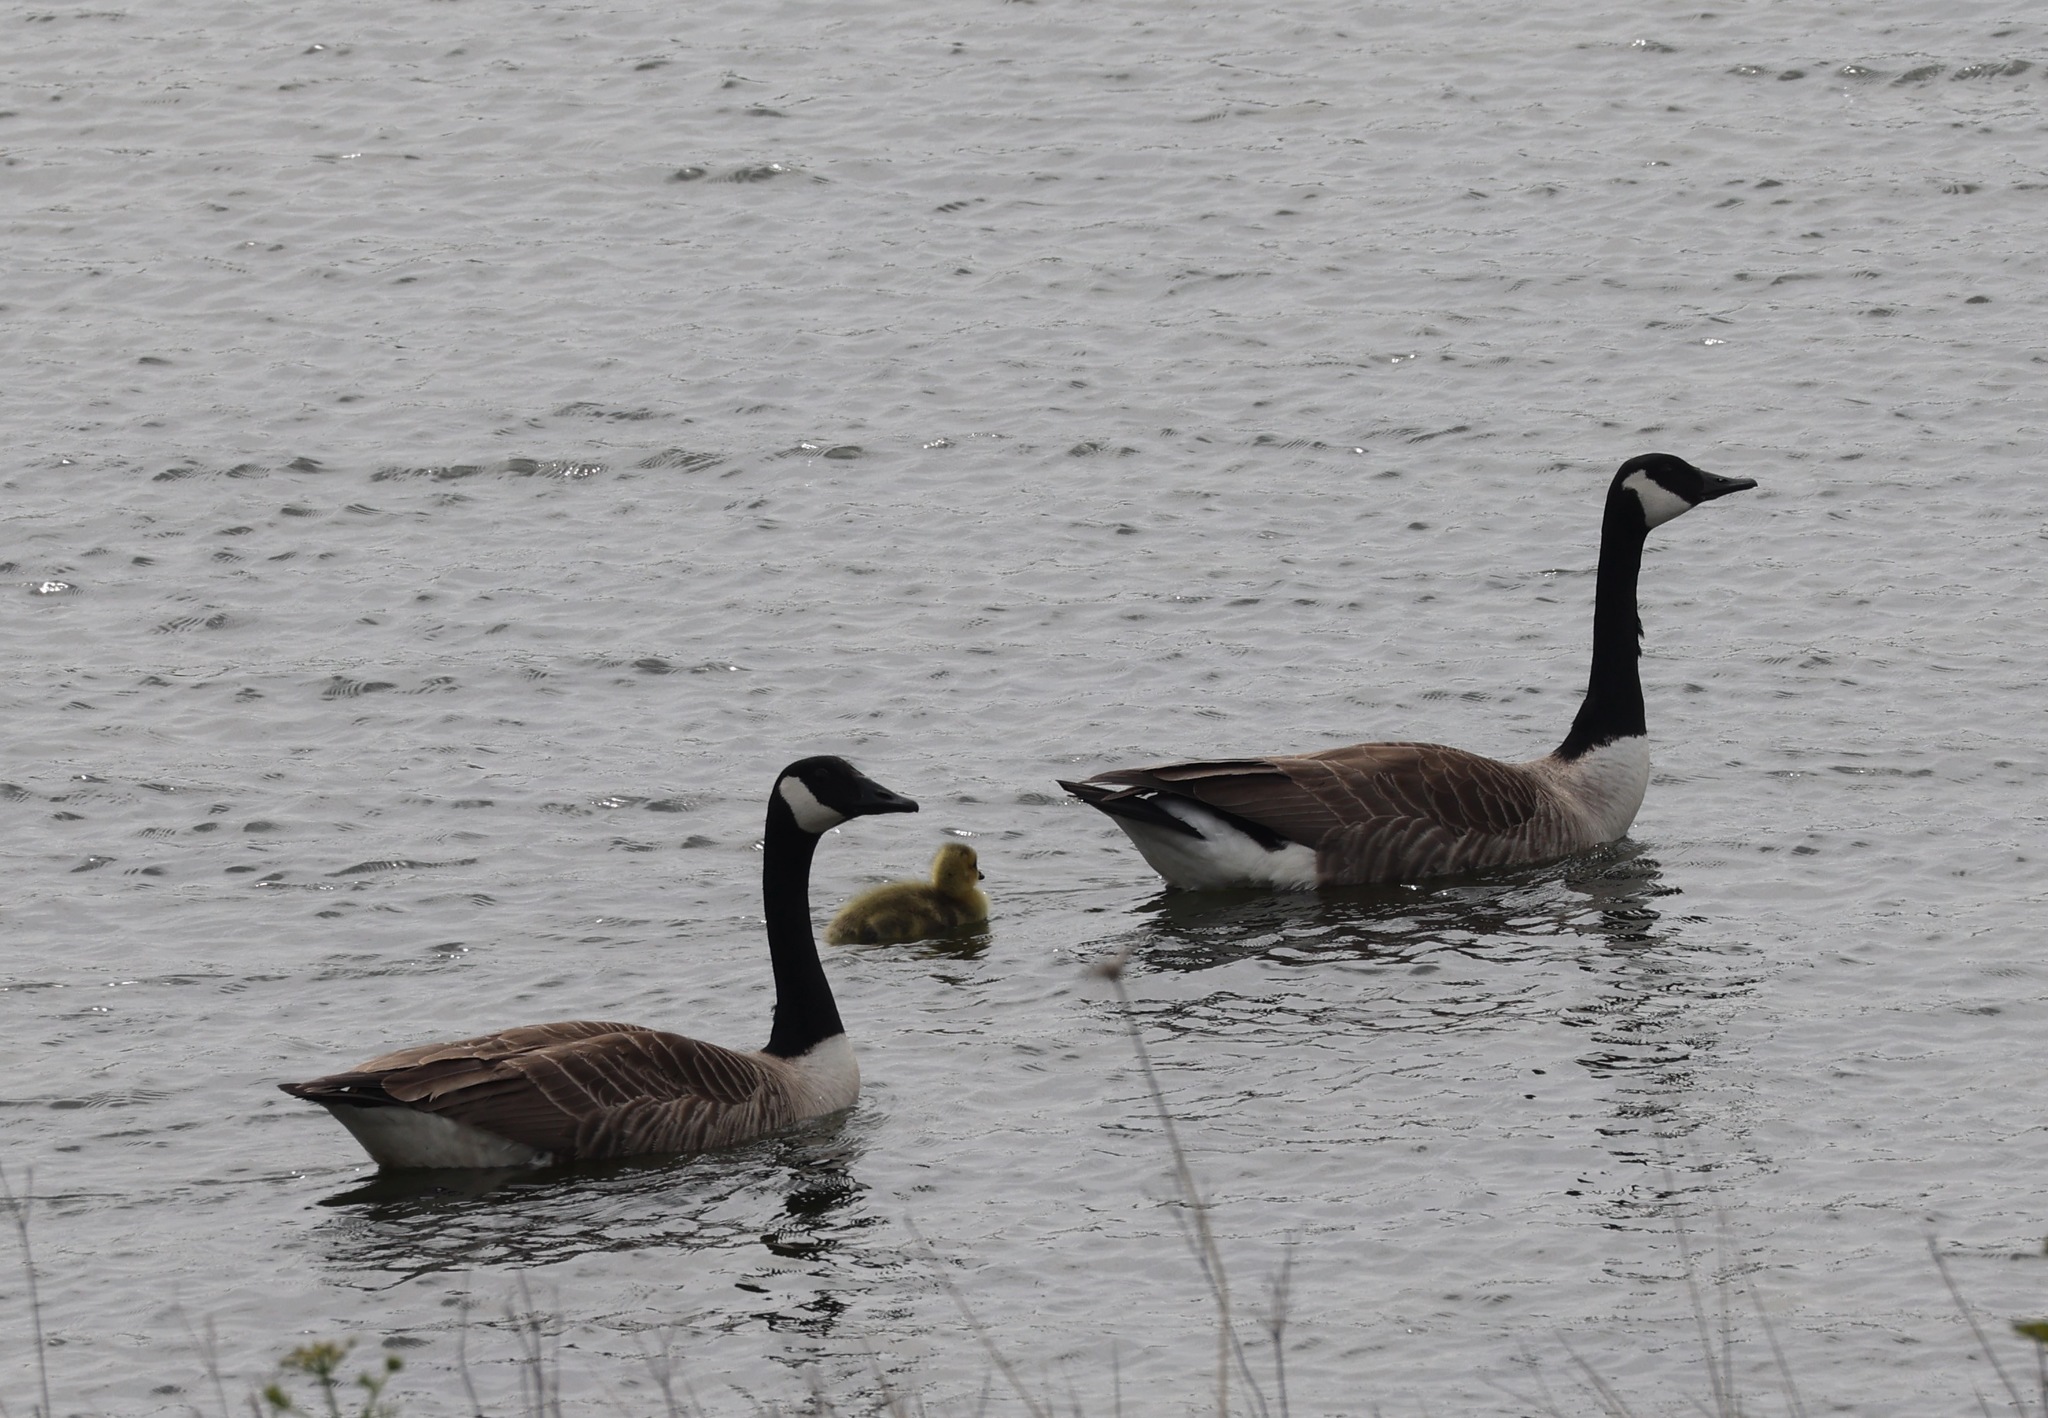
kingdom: Animalia
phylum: Chordata
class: Aves
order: Anseriformes
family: Anatidae
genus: Branta
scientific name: Branta canadensis
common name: Canada goose
